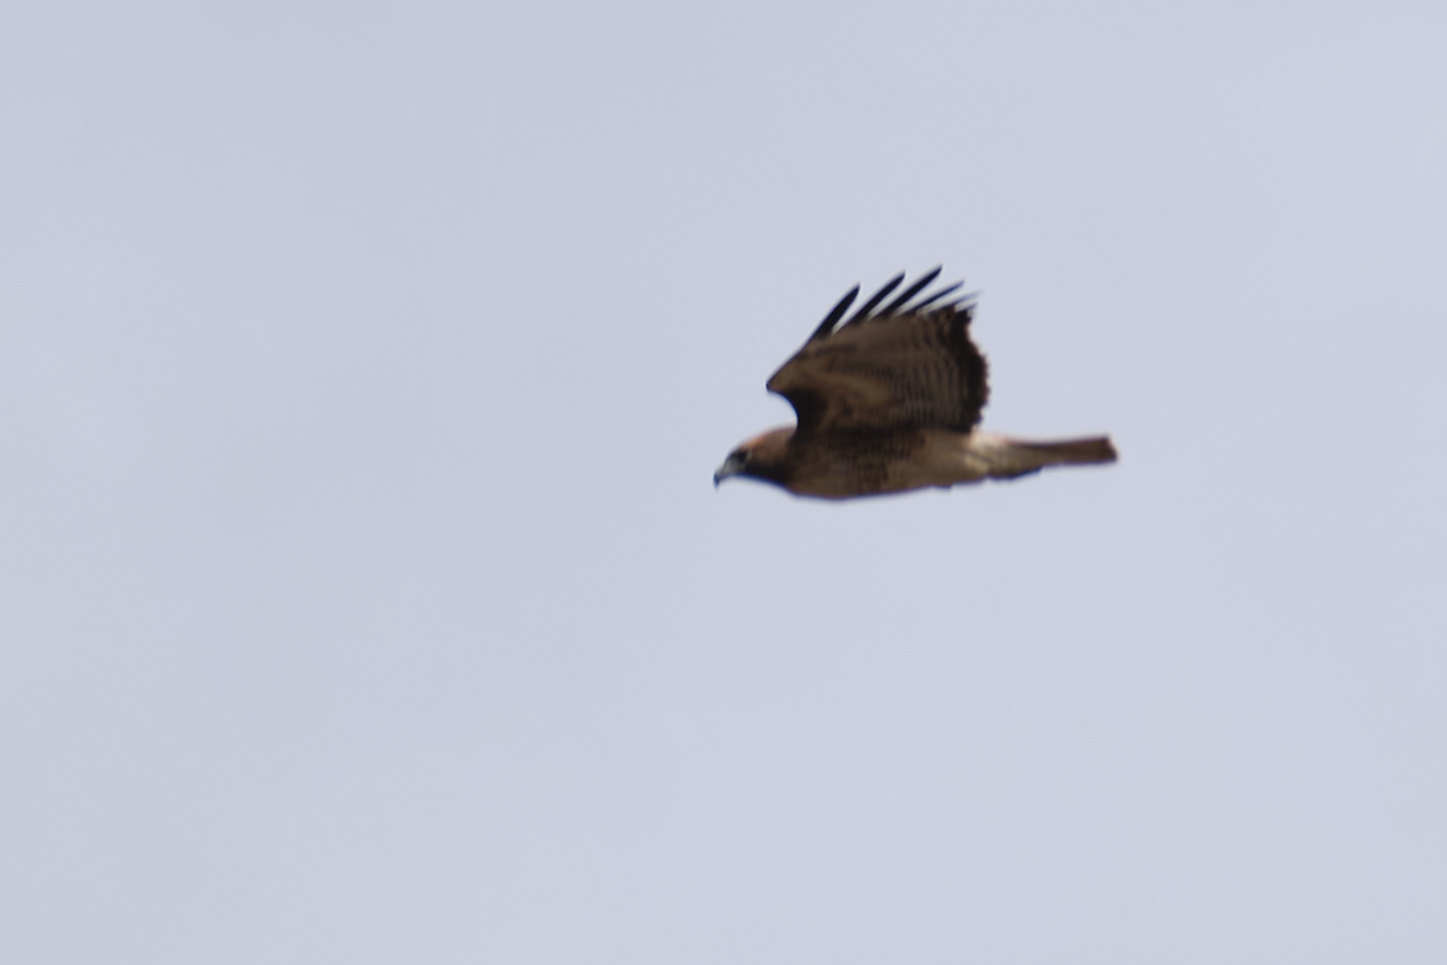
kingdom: Animalia
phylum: Chordata
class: Aves
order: Accipitriformes
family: Accipitridae
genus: Buteo
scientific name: Buteo jamaicensis
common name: Red-tailed hawk
